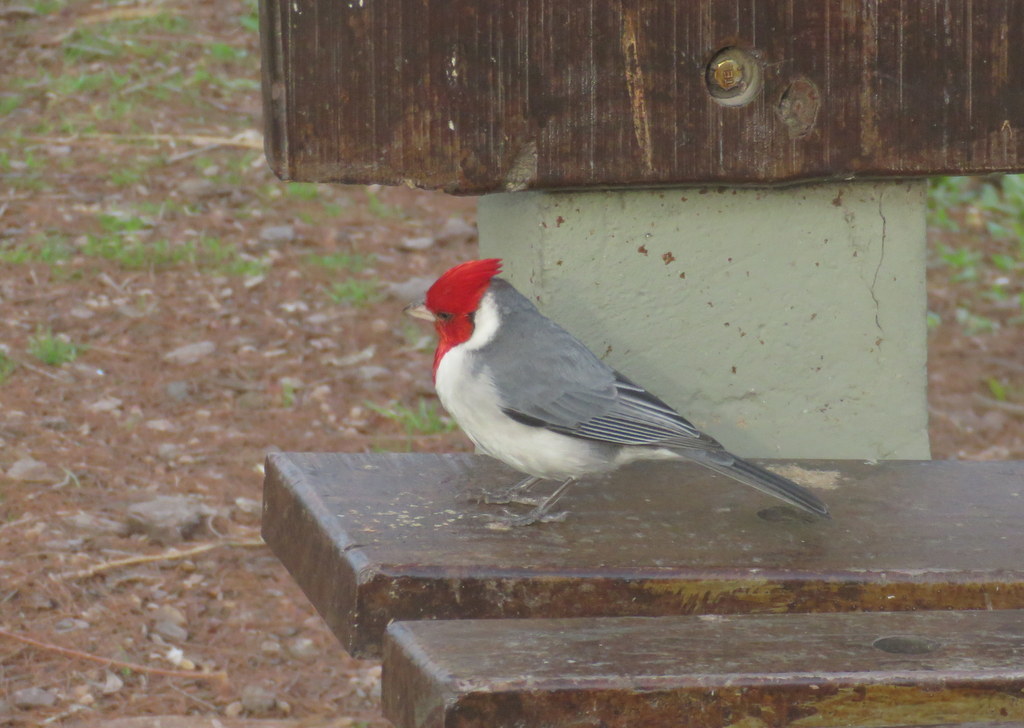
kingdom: Animalia
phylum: Chordata
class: Aves
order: Passeriformes
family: Thraupidae
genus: Paroaria
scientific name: Paroaria coronata
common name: Red-crested cardinal
